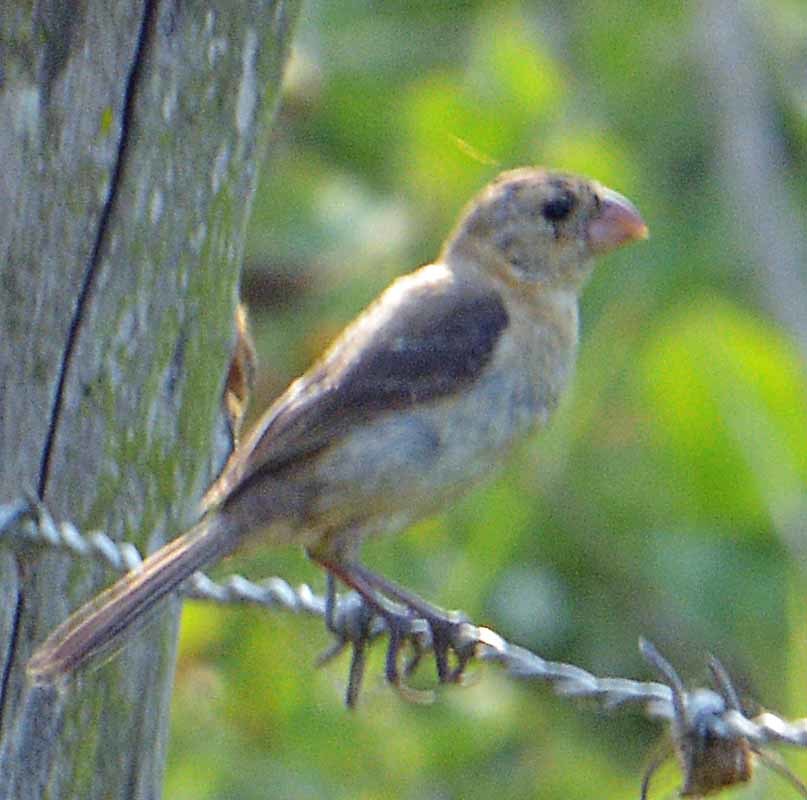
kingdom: Animalia
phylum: Chordata
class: Aves
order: Passeriformes
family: Thraupidae
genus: Sporophila
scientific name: Sporophila morelleti
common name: Morelet's seedeater
